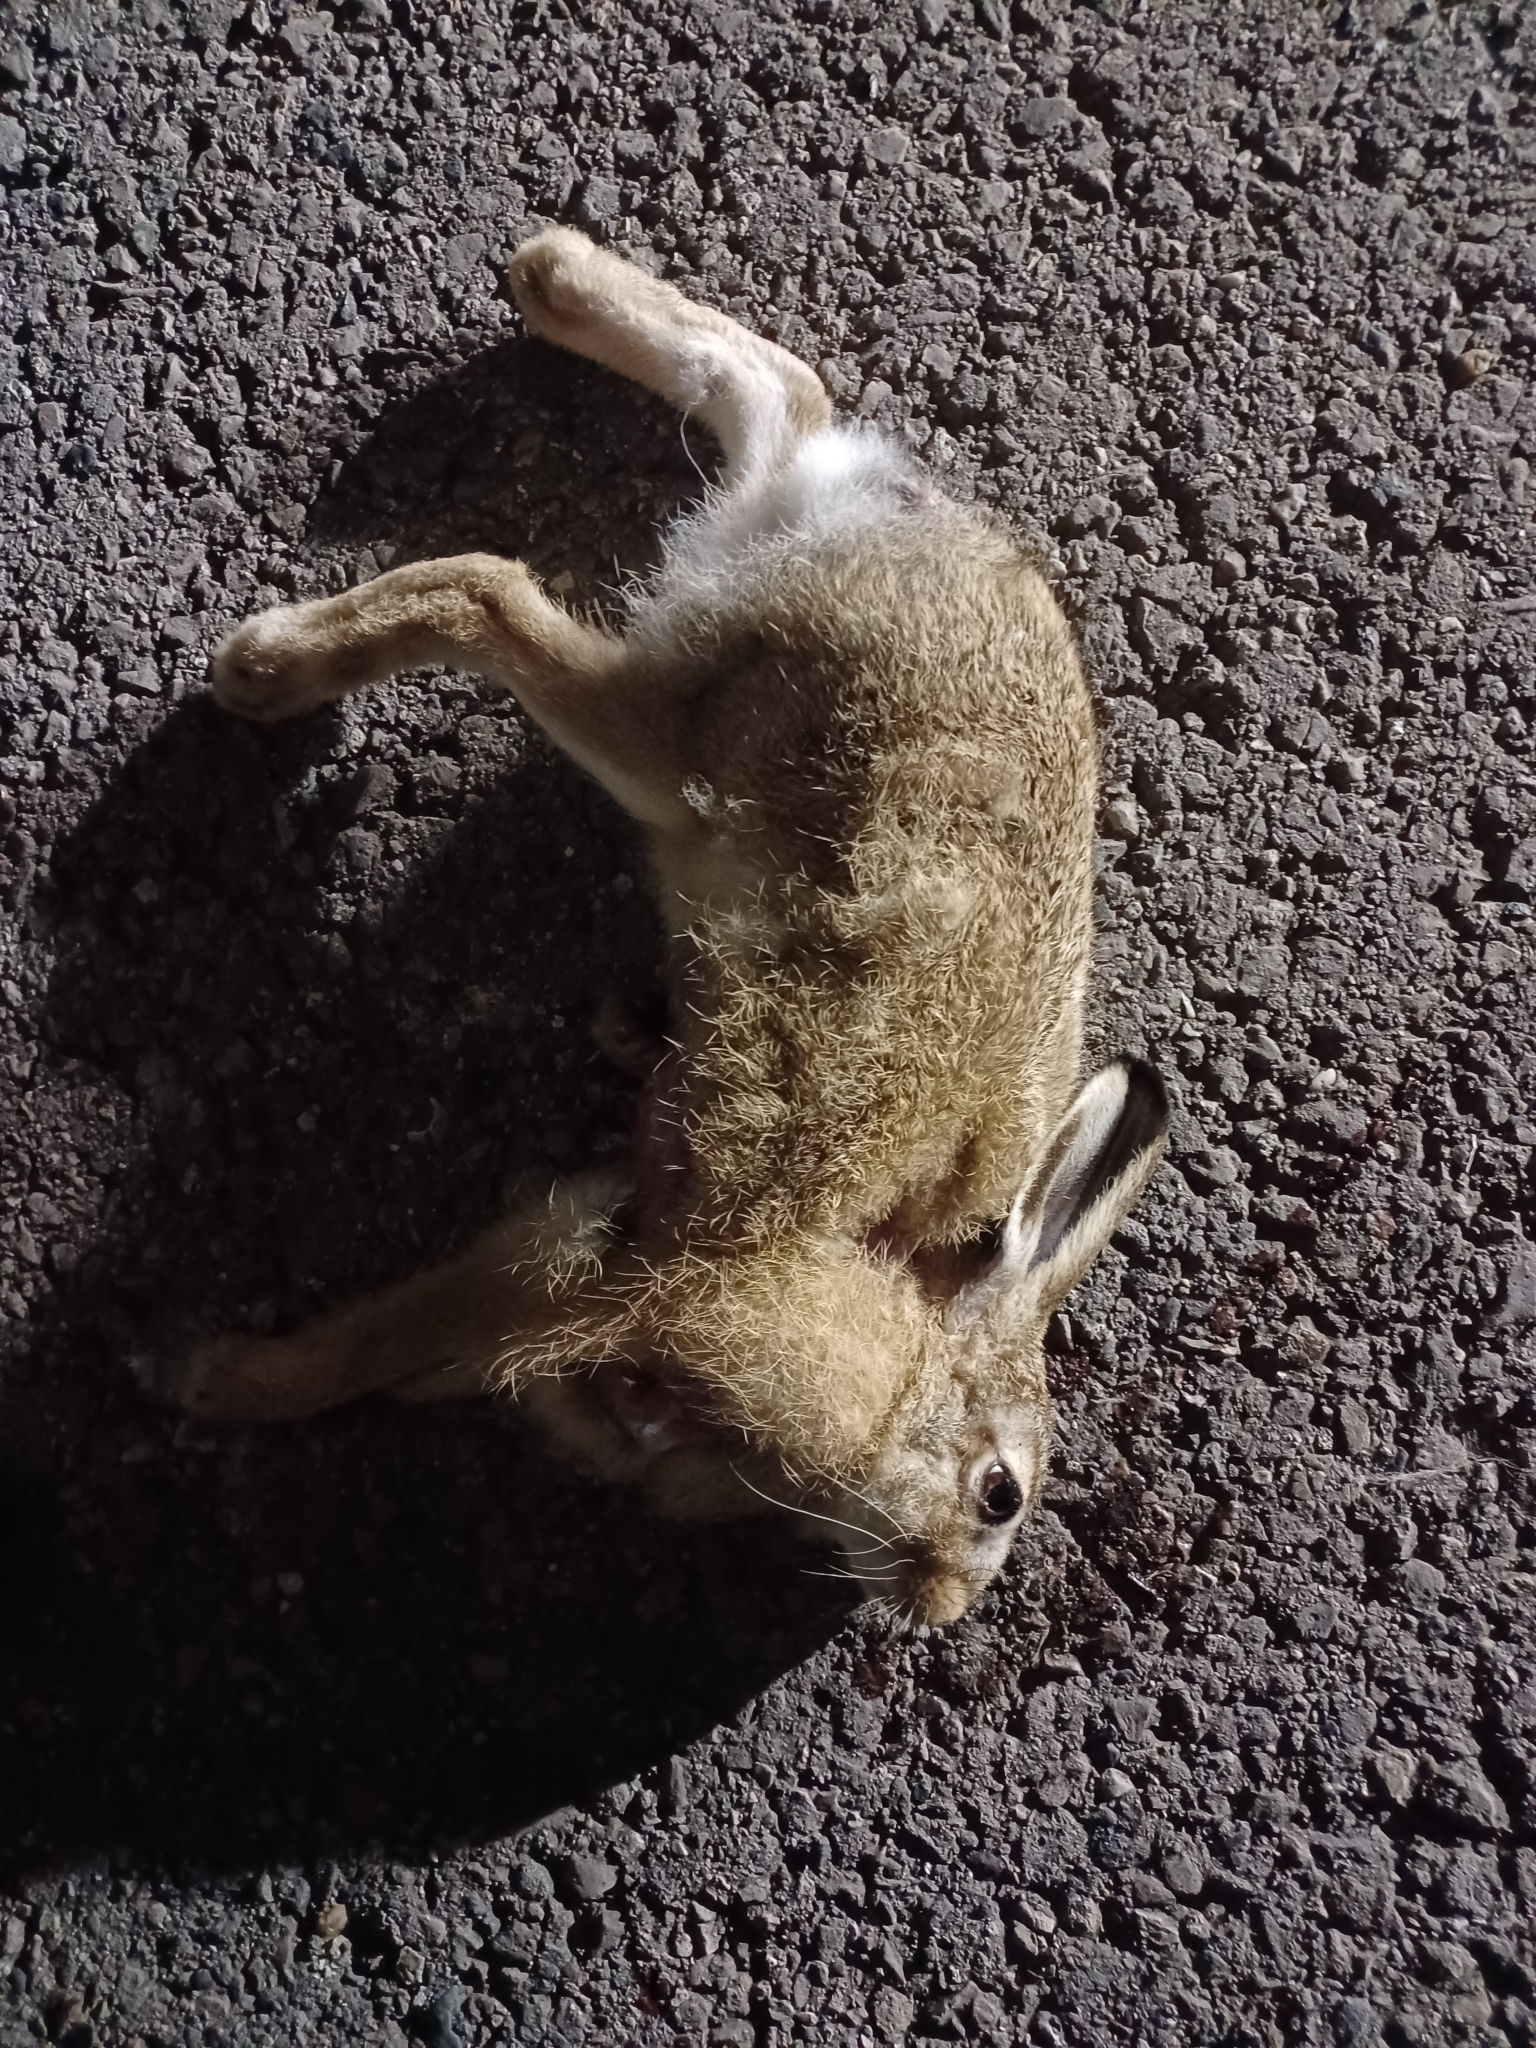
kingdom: Animalia
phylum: Chordata
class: Mammalia
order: Lagomorpha
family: Leporidae
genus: Lepus
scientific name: Lepus europaeus
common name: European hare
